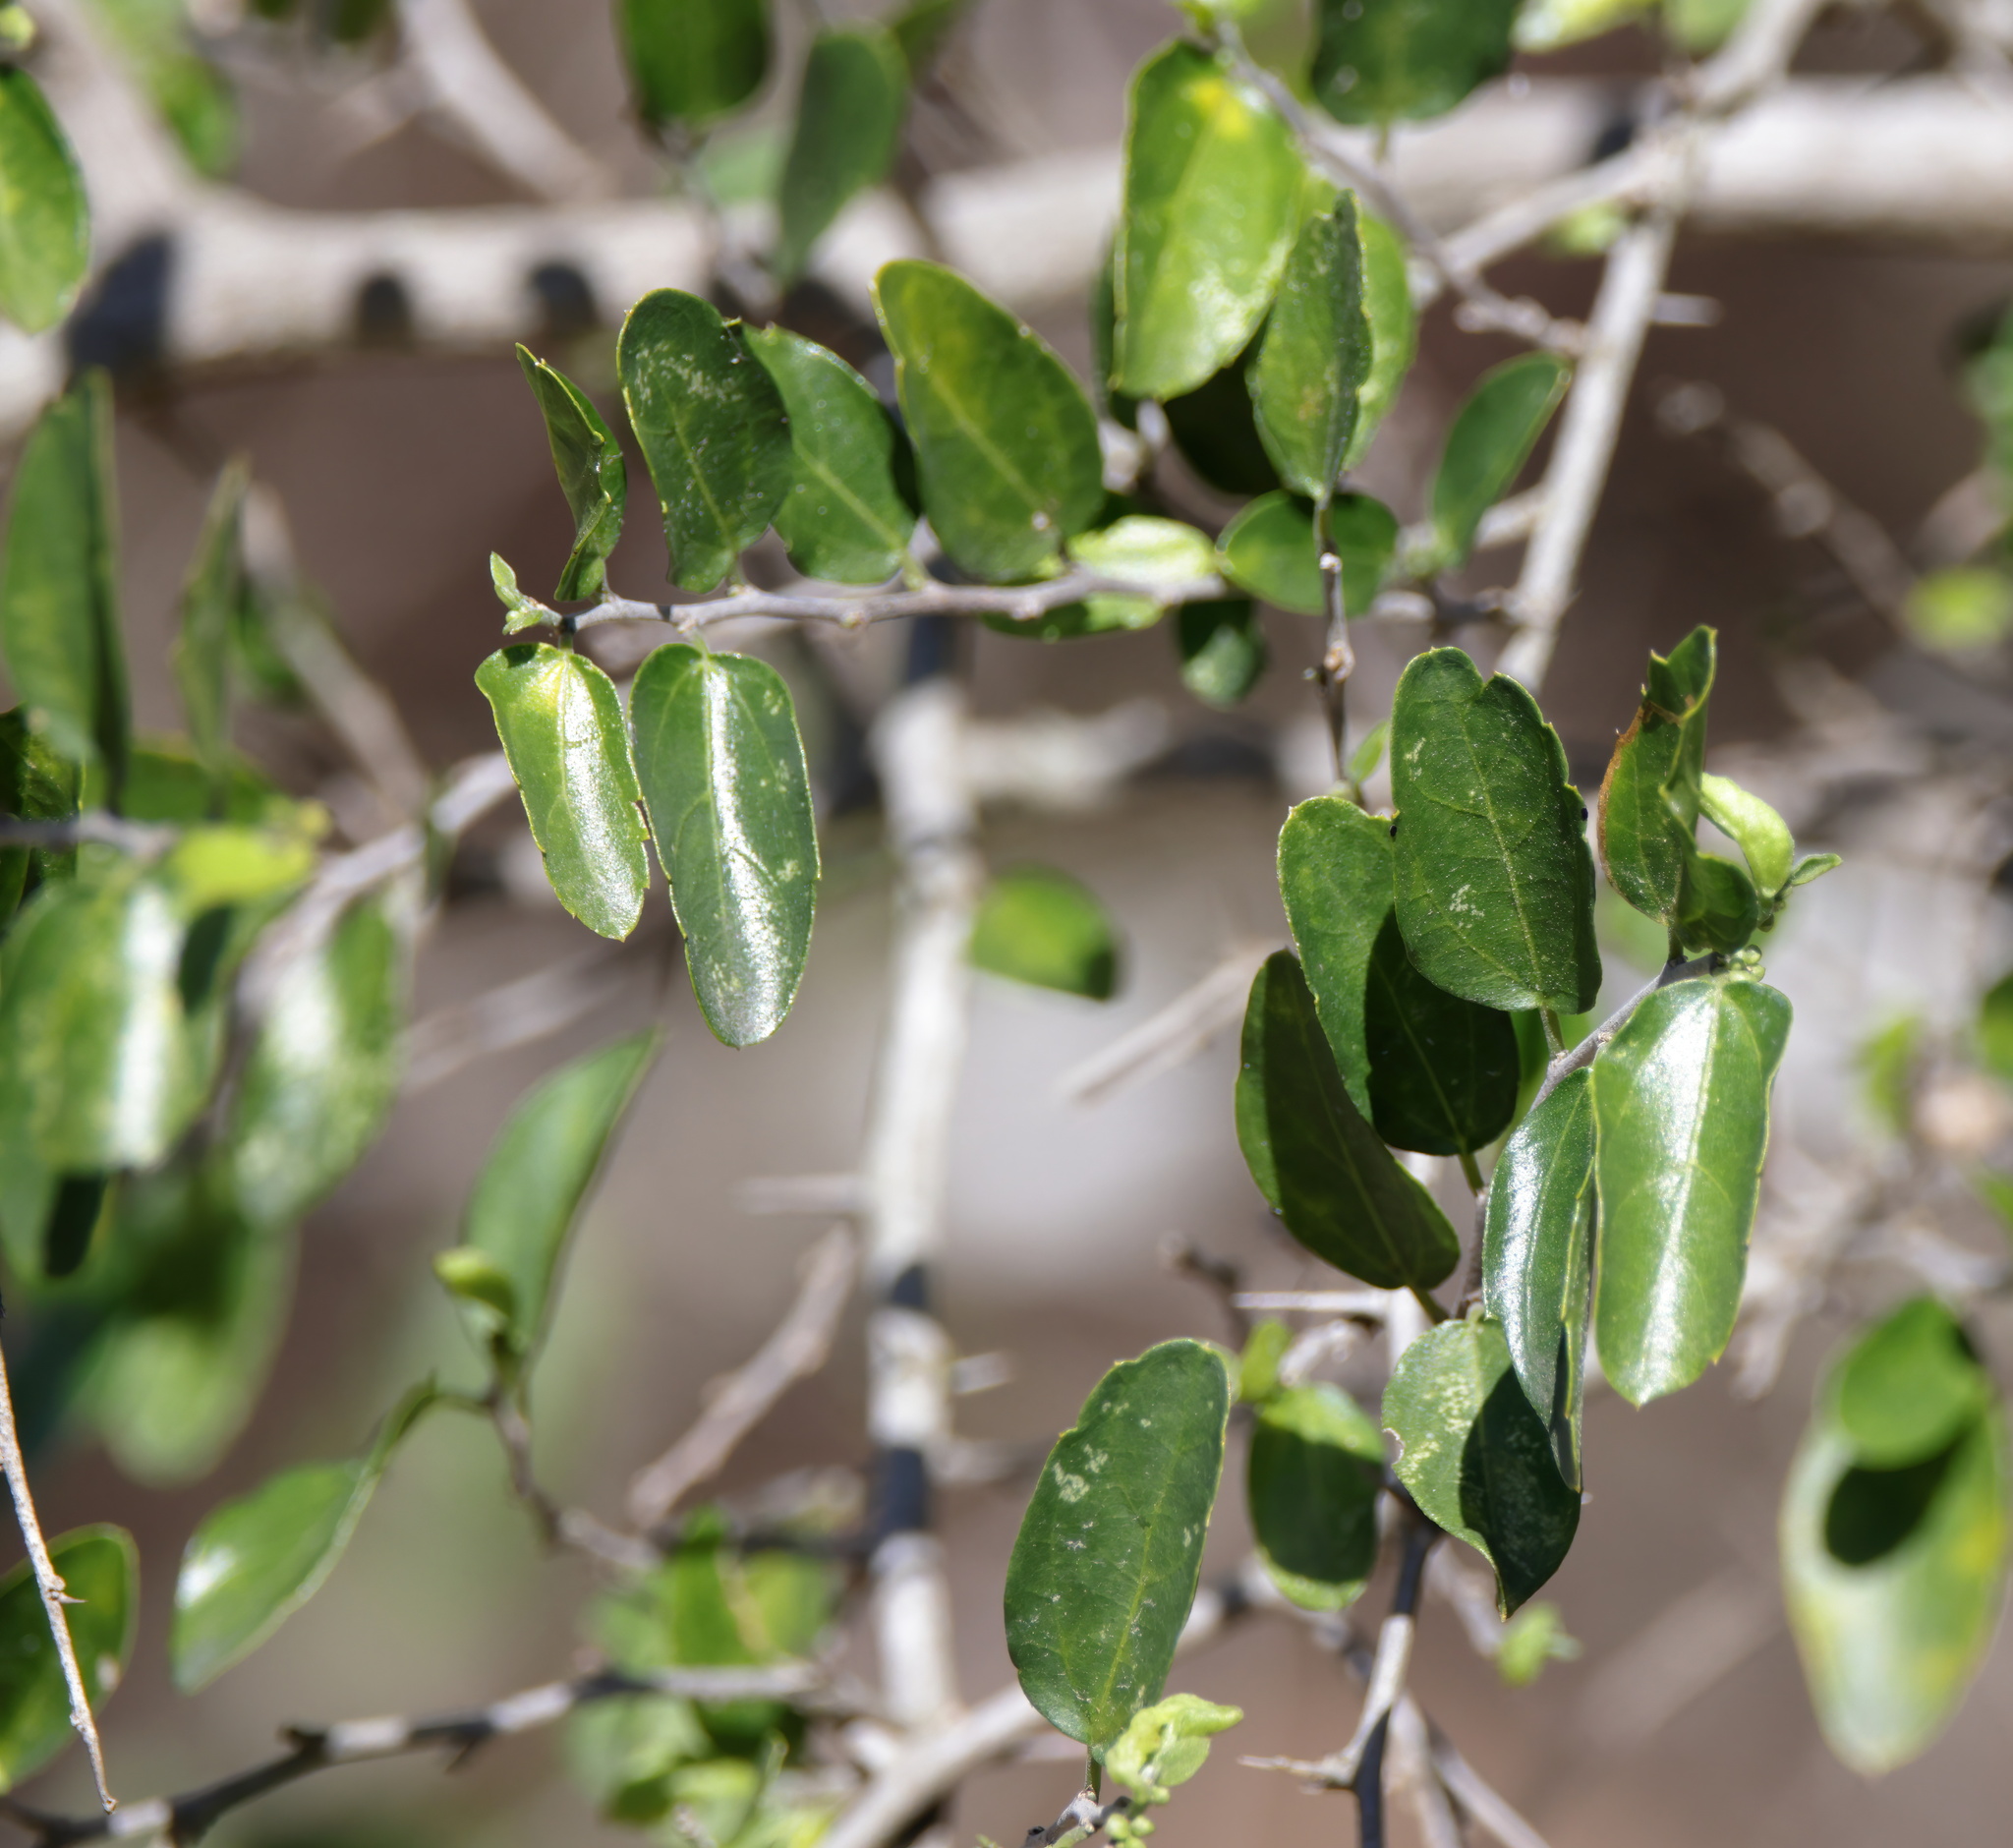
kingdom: Plantae
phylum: Tracheophyta
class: Magnoliopsida
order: Rosales
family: Cannabaceae
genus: Celtis
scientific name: Celtis pallida
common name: Desert hackberry
